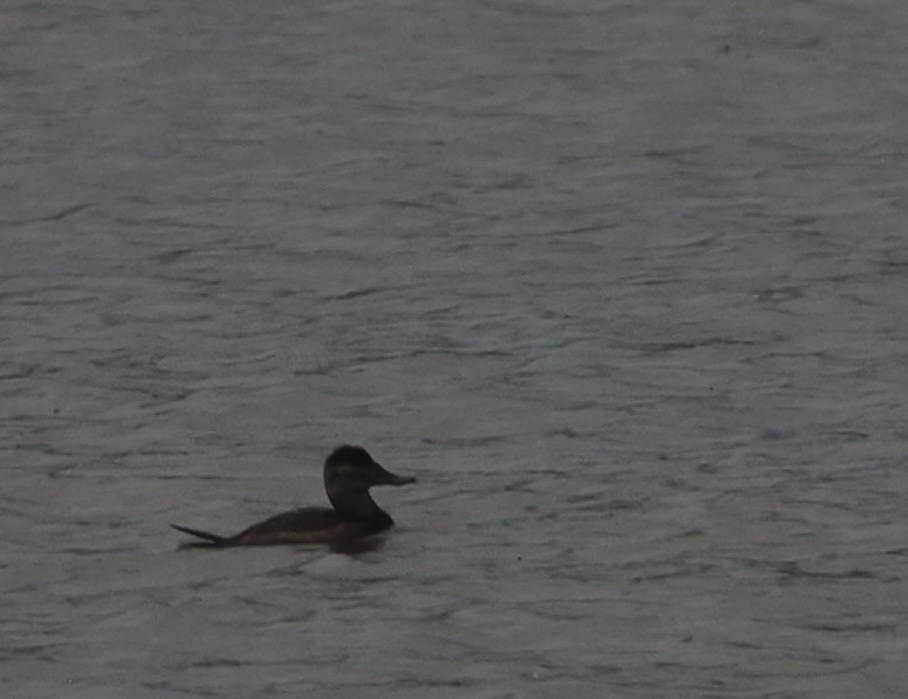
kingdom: Animalia
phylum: Chordata
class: Aves
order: Anseriformes
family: Anatidae
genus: Oxyura
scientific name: Oxyura jamaicensis
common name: Ruddy duck
